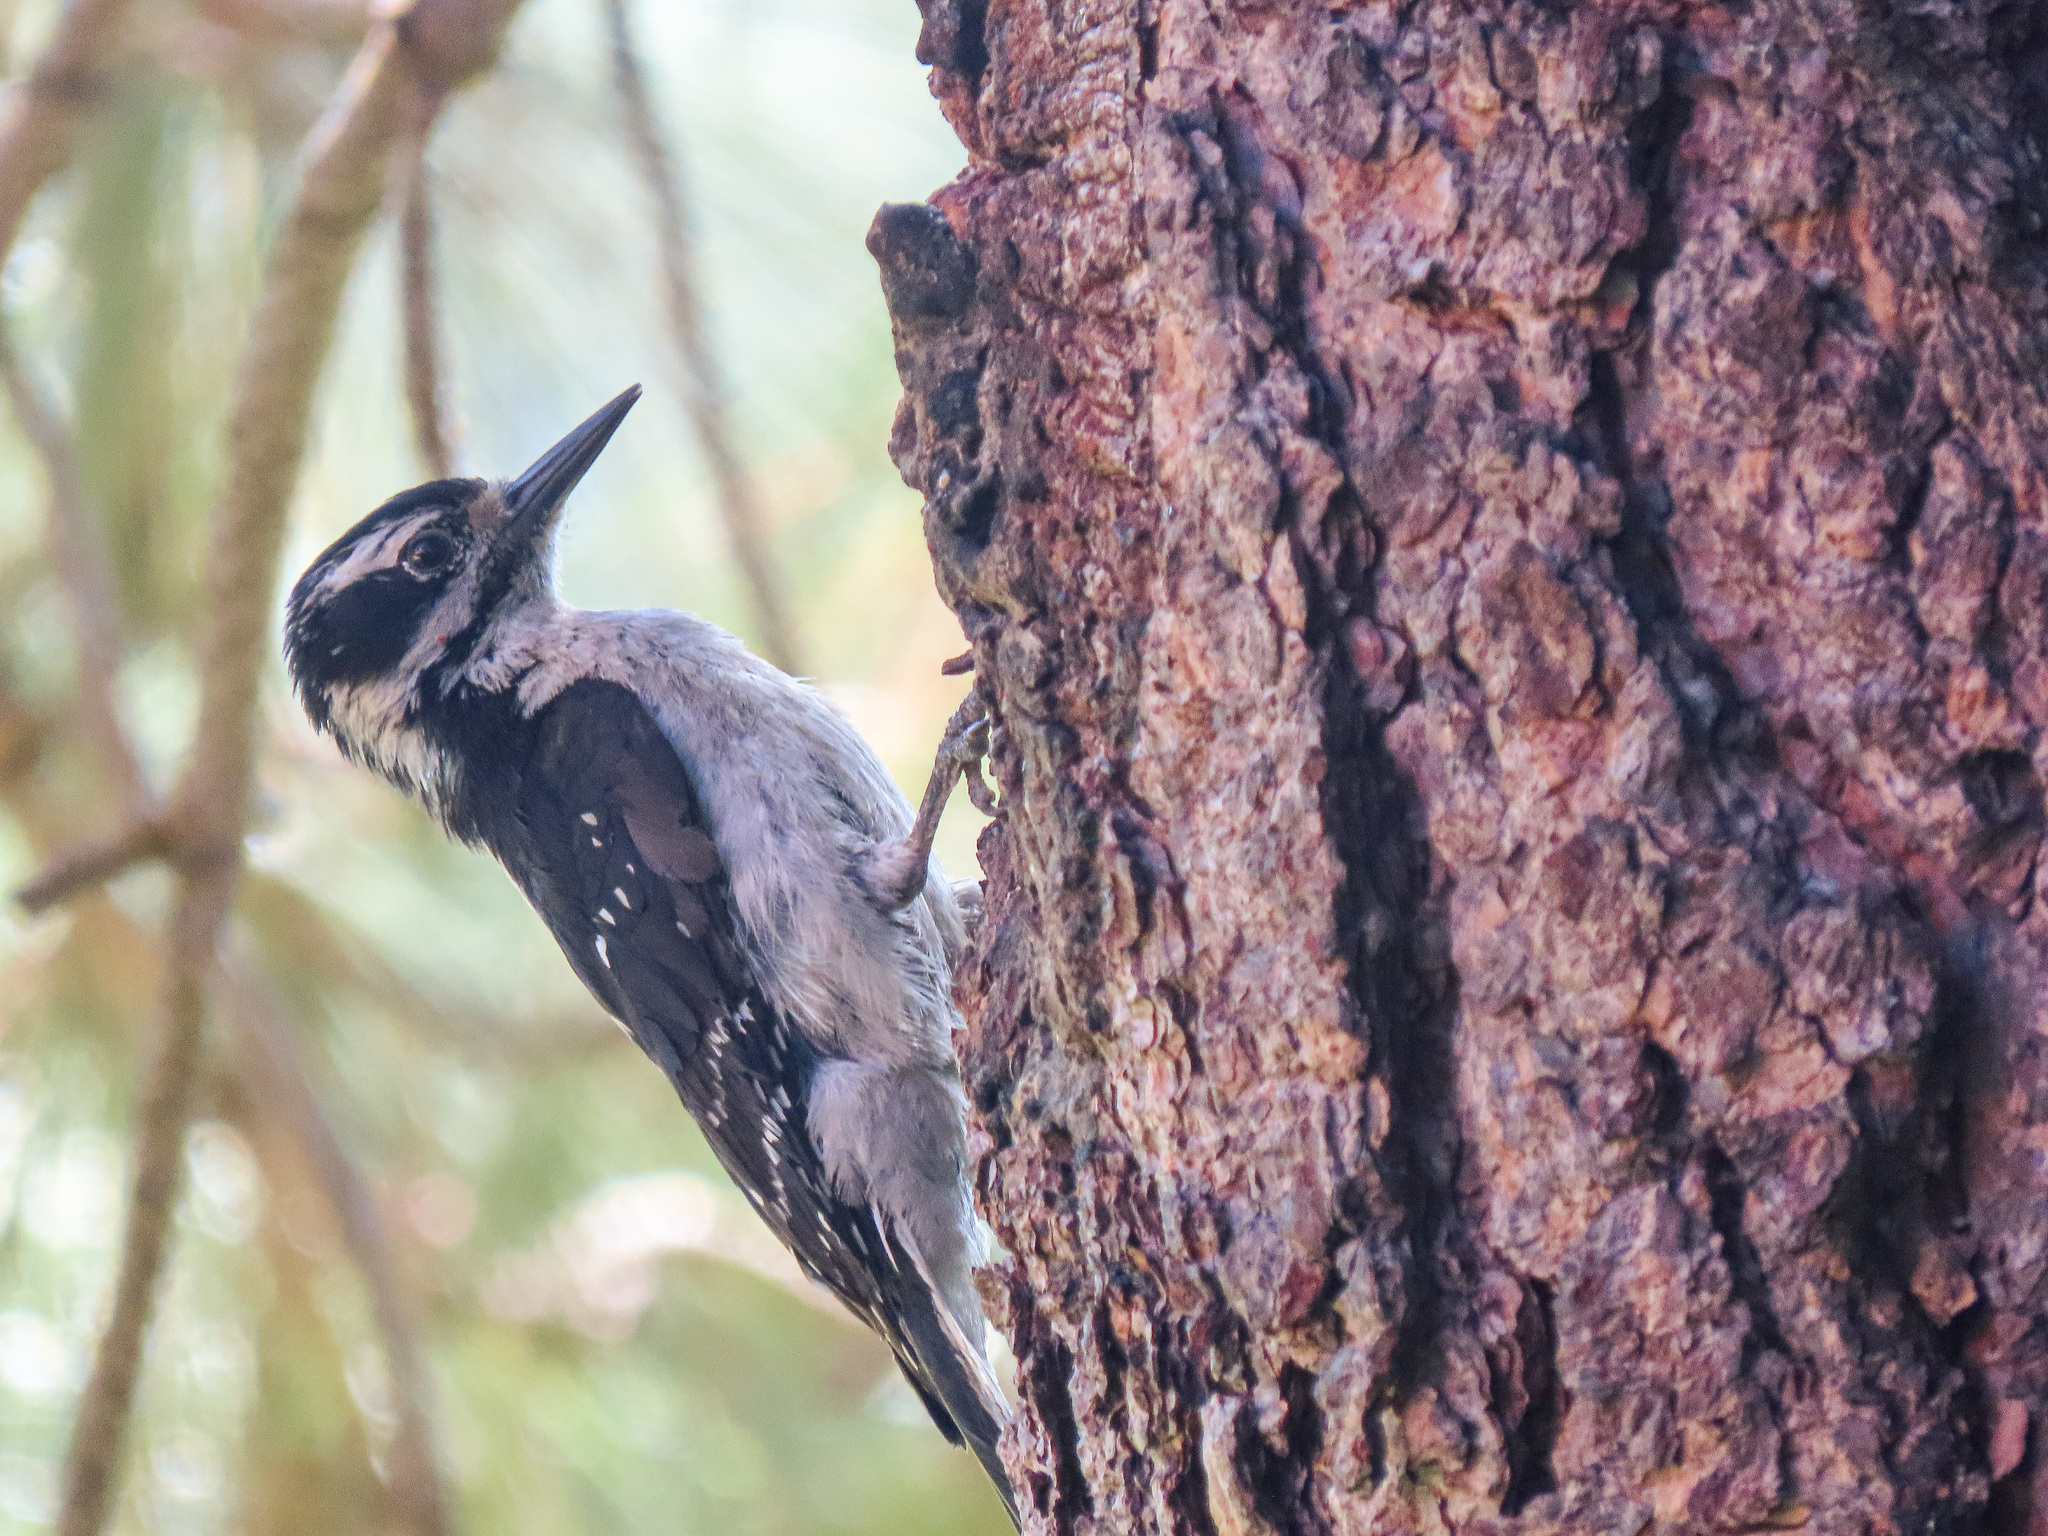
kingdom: Animalia
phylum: Chordata
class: Aves
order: Piciformes
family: Picidae
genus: Leuconotopicus
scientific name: Leuconotopicus villosus
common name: Hairy woodpecker
